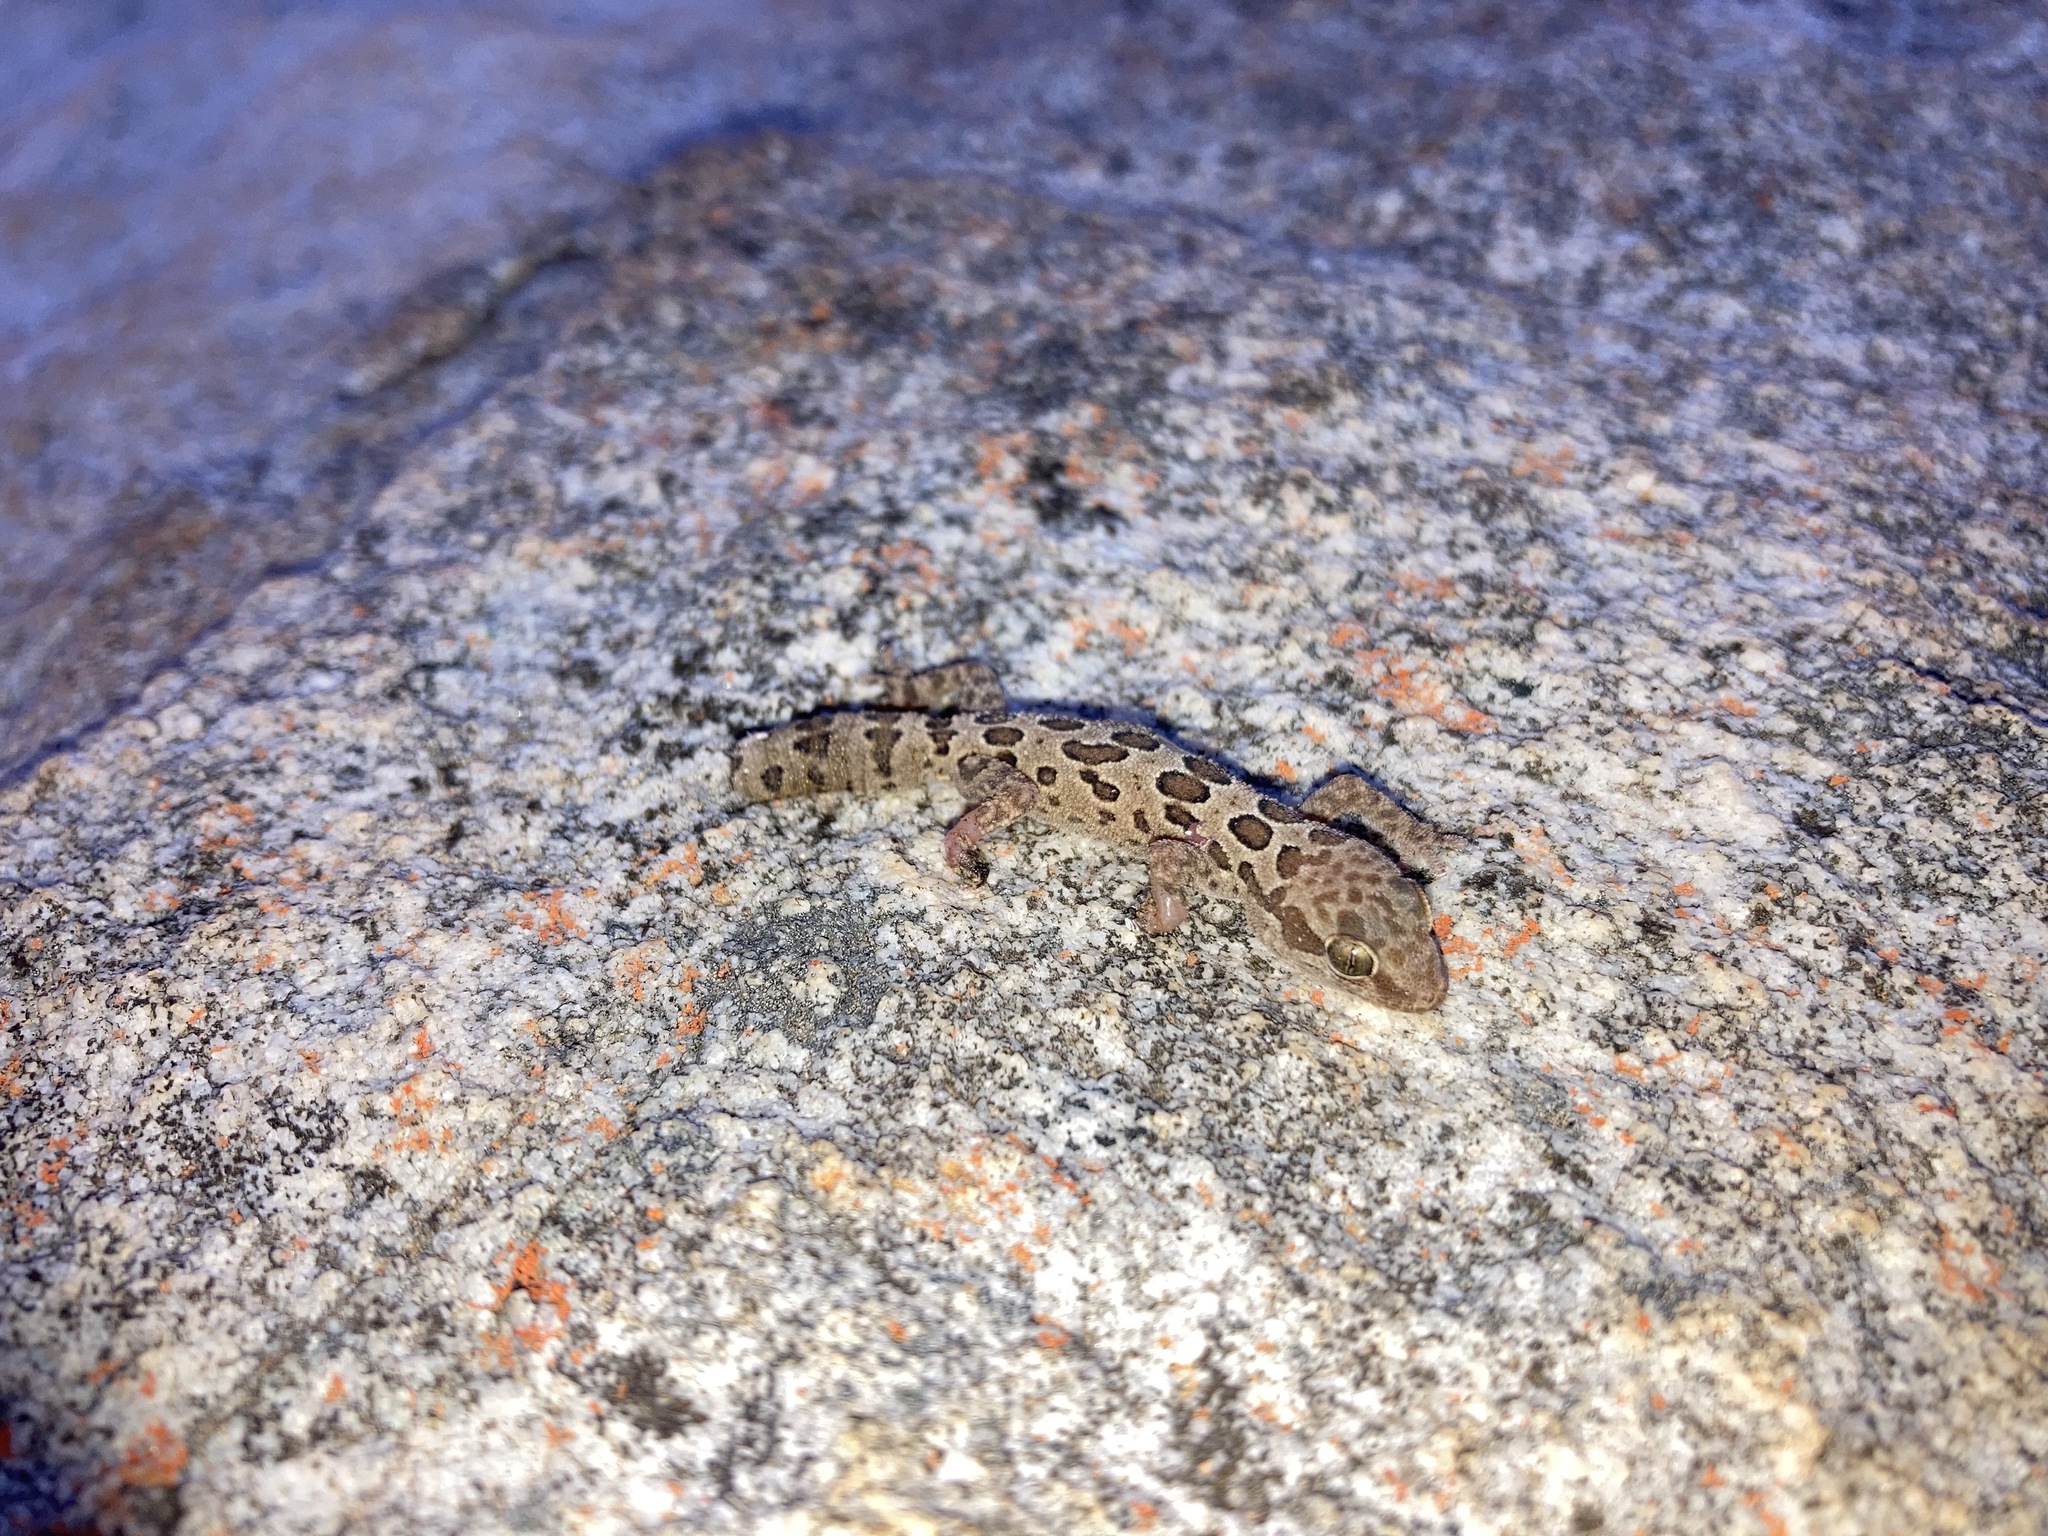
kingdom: Animalia
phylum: Chordata
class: Squamata
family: Gekkonidae
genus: Pachydactylus
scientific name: Pachydactylus oculatus
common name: Golden spotted gecko
